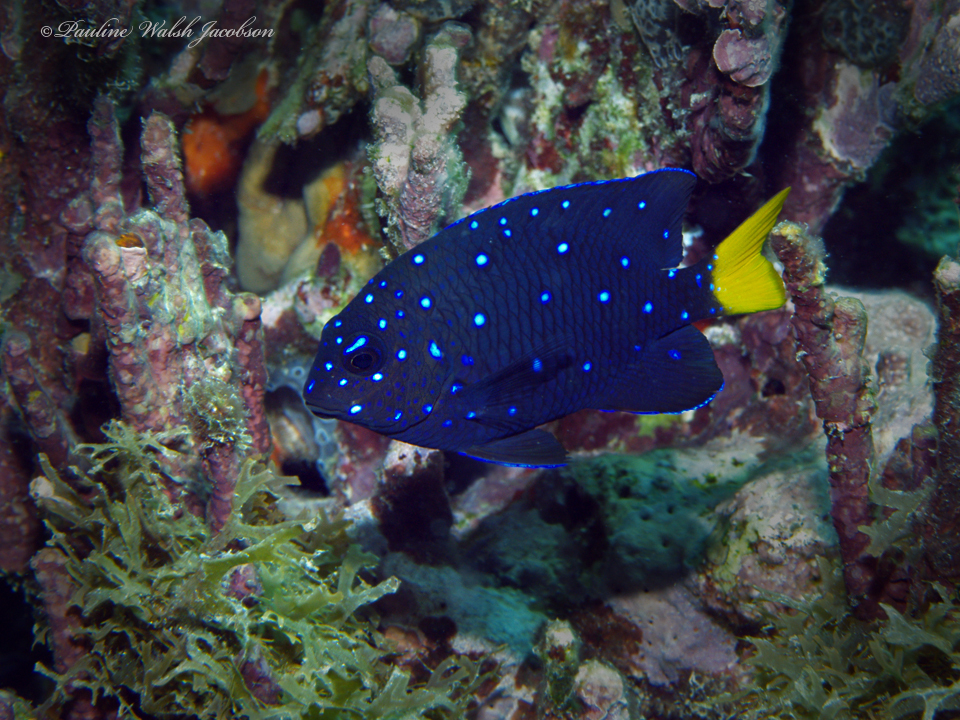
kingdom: Animalia
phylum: Chordata
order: Perciformes
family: Pomacentridae
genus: Microspathodon
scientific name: Microspathodon chrysurus
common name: Yellowtail damselfish
